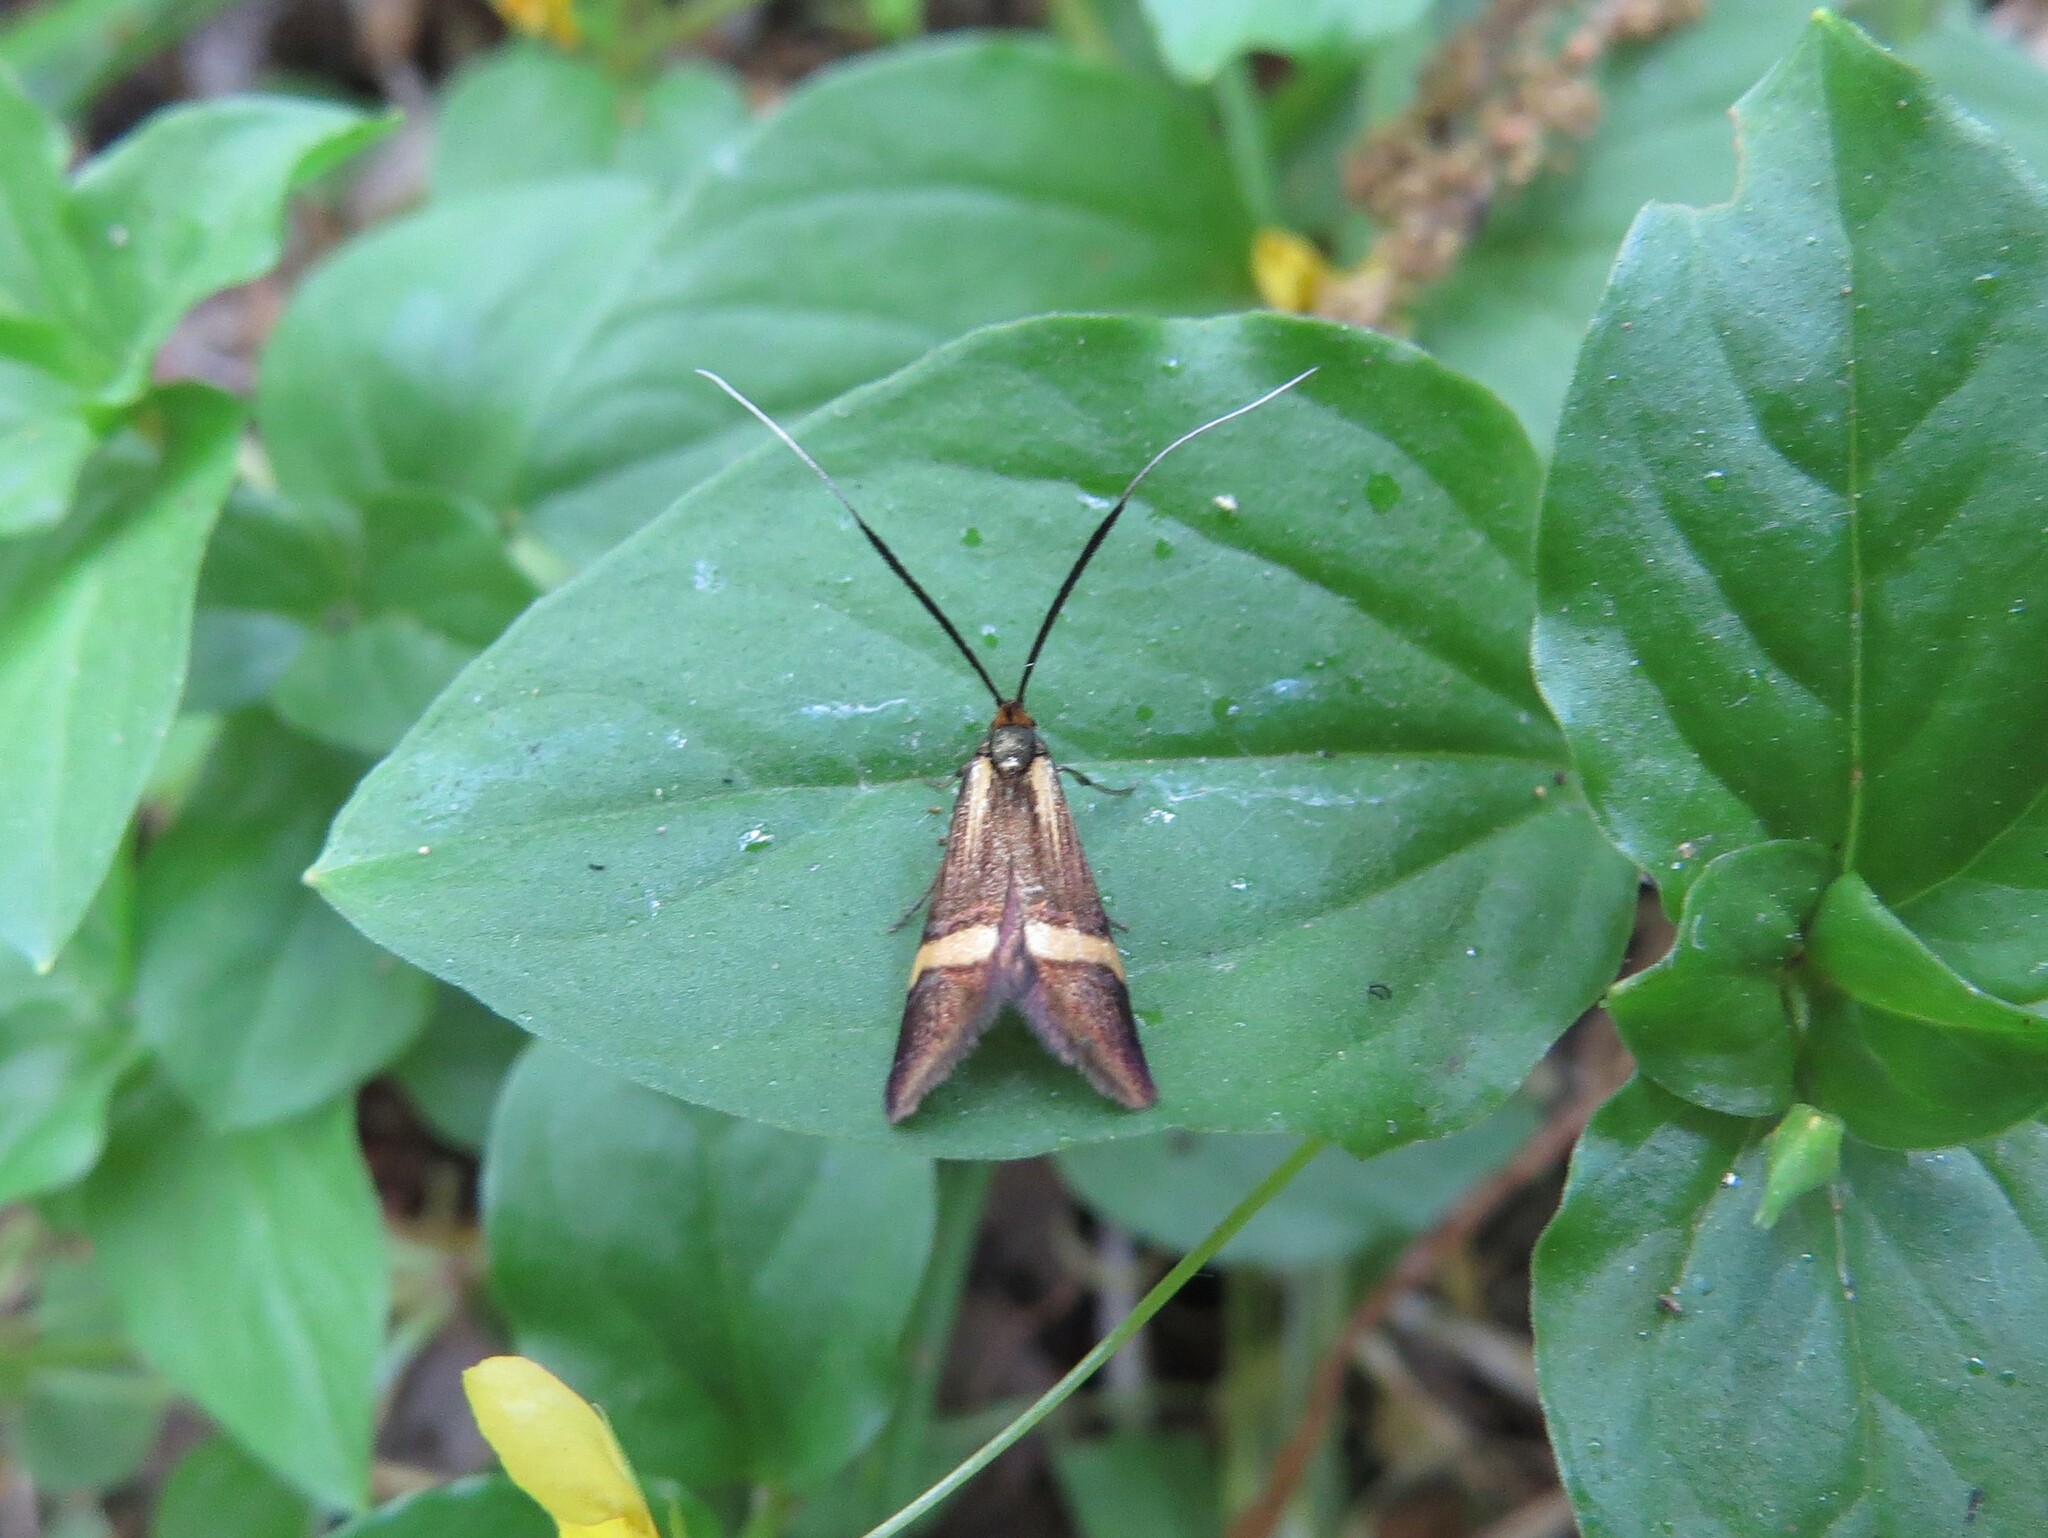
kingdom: Animalia
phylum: Arthropoda
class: Insecta
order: Lepidoptera
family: Adelidae
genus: Nemophora
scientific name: Nemophora degeerella
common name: Yellow-barred long-horn
